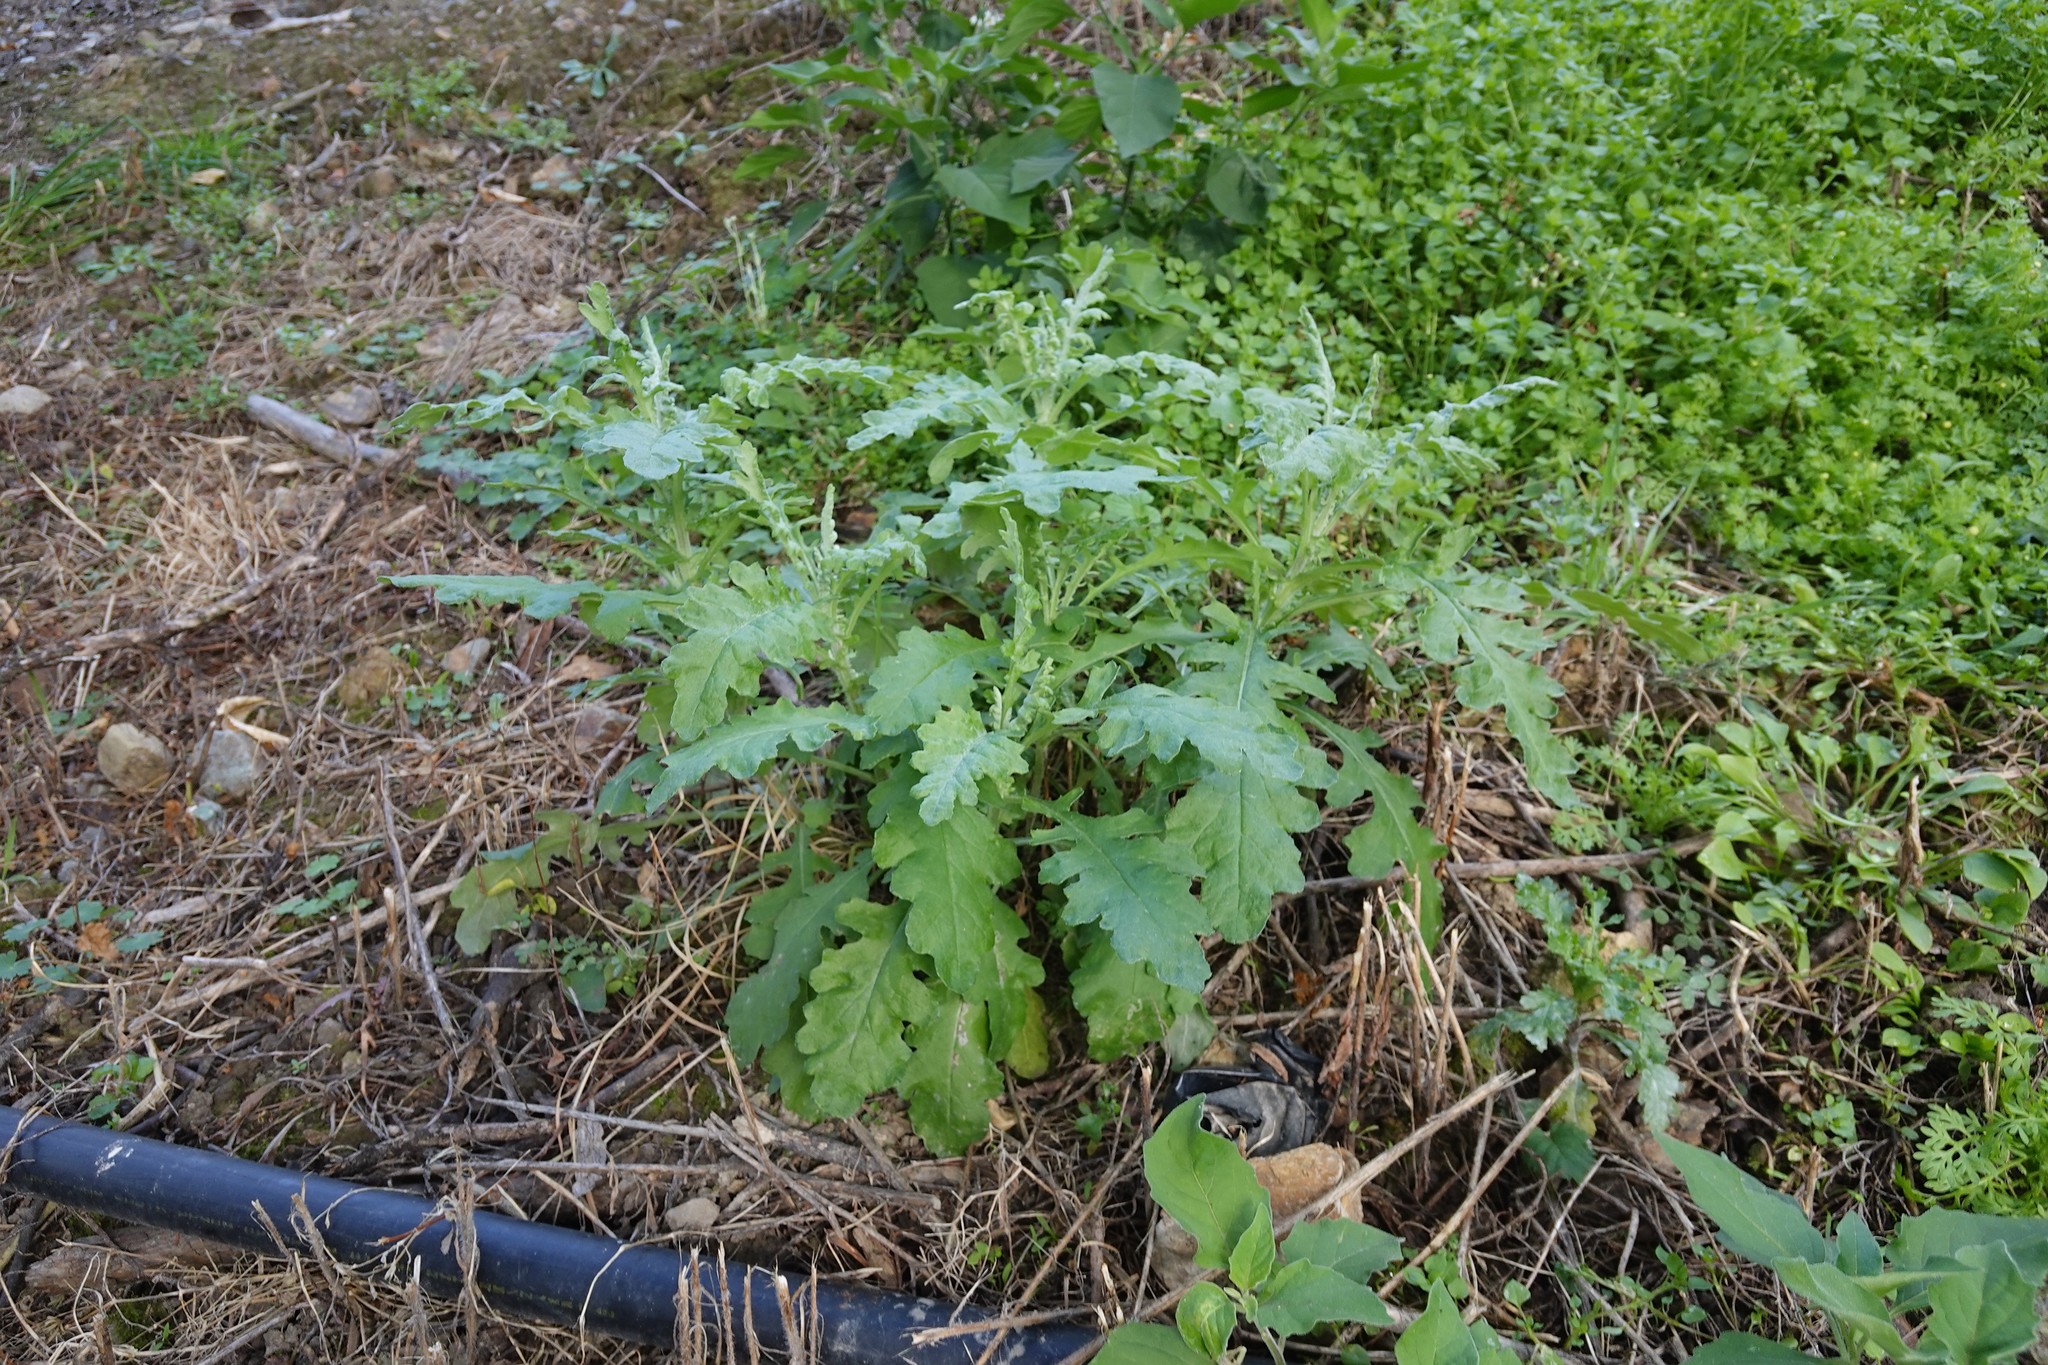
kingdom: Plantae
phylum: Tracheophyta
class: Magnoliopsida
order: Asterales
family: Asteraceae
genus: Senecio
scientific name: Senecio glomeratus
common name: Cutleaf burnweed
